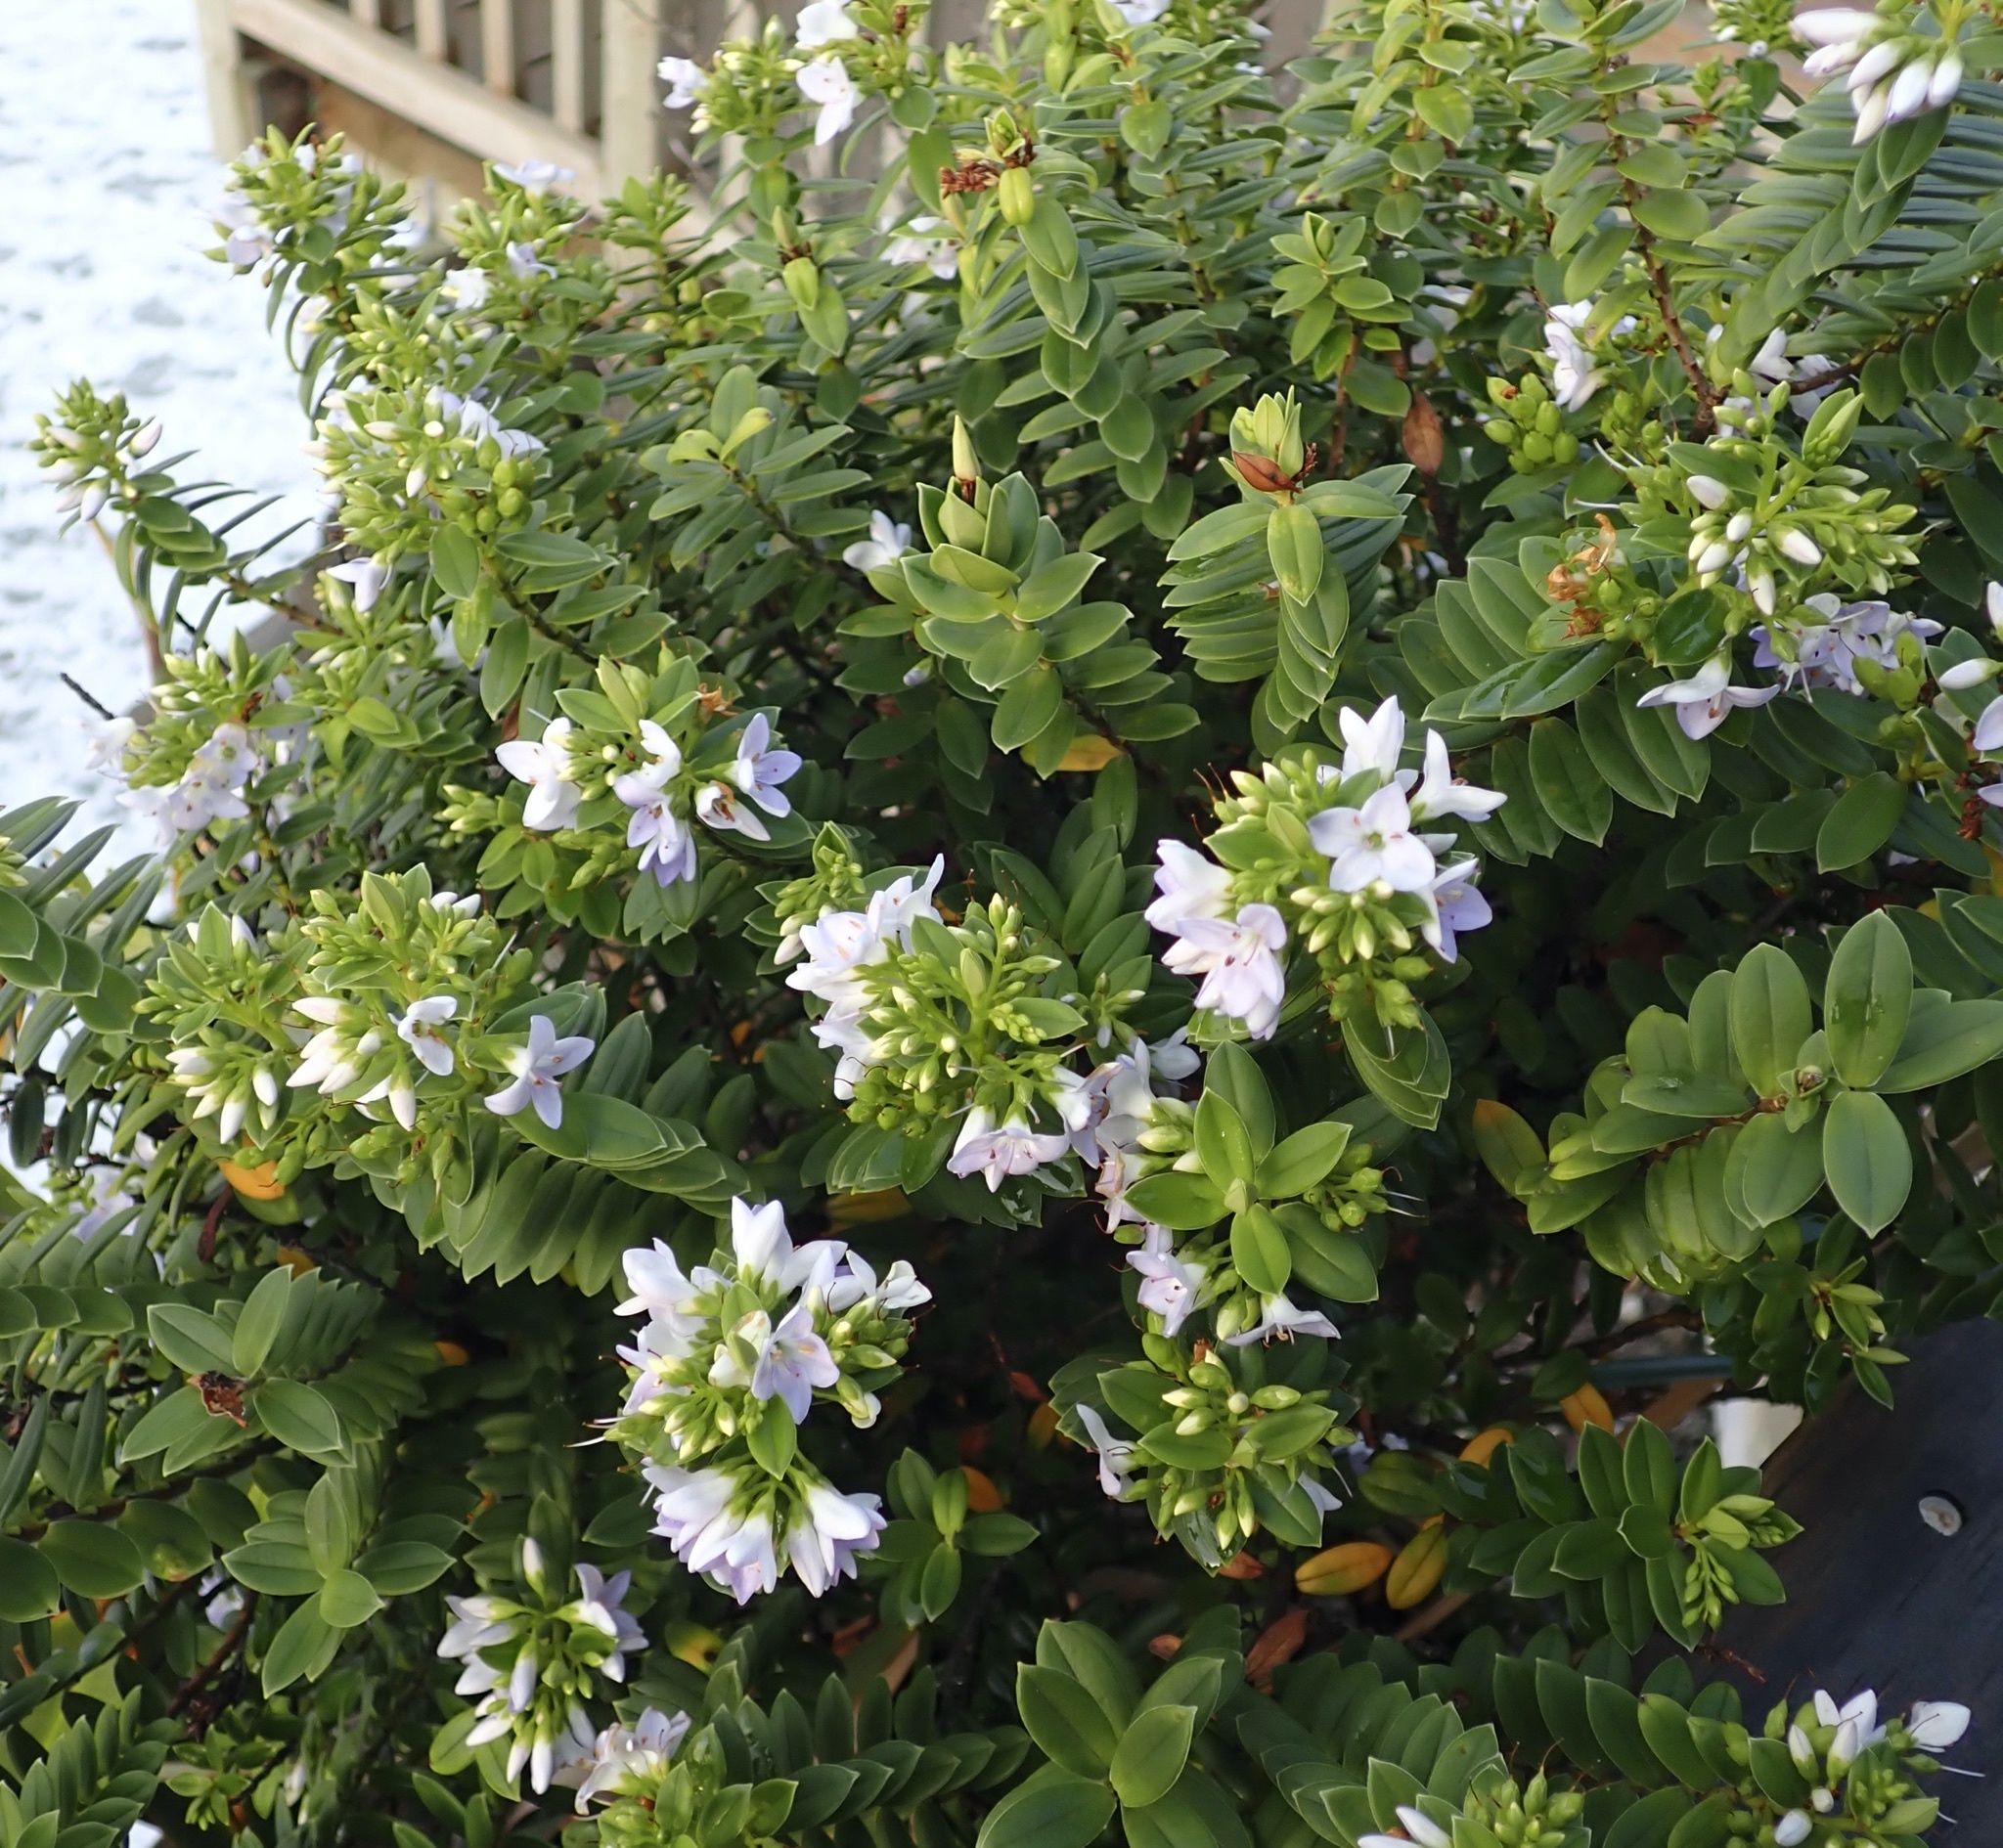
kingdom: Plantae
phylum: Tracheophyta
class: Magnoliopsida
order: Lamiales
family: Plantaginaceae
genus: Veronica
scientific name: Veronica elliptica
